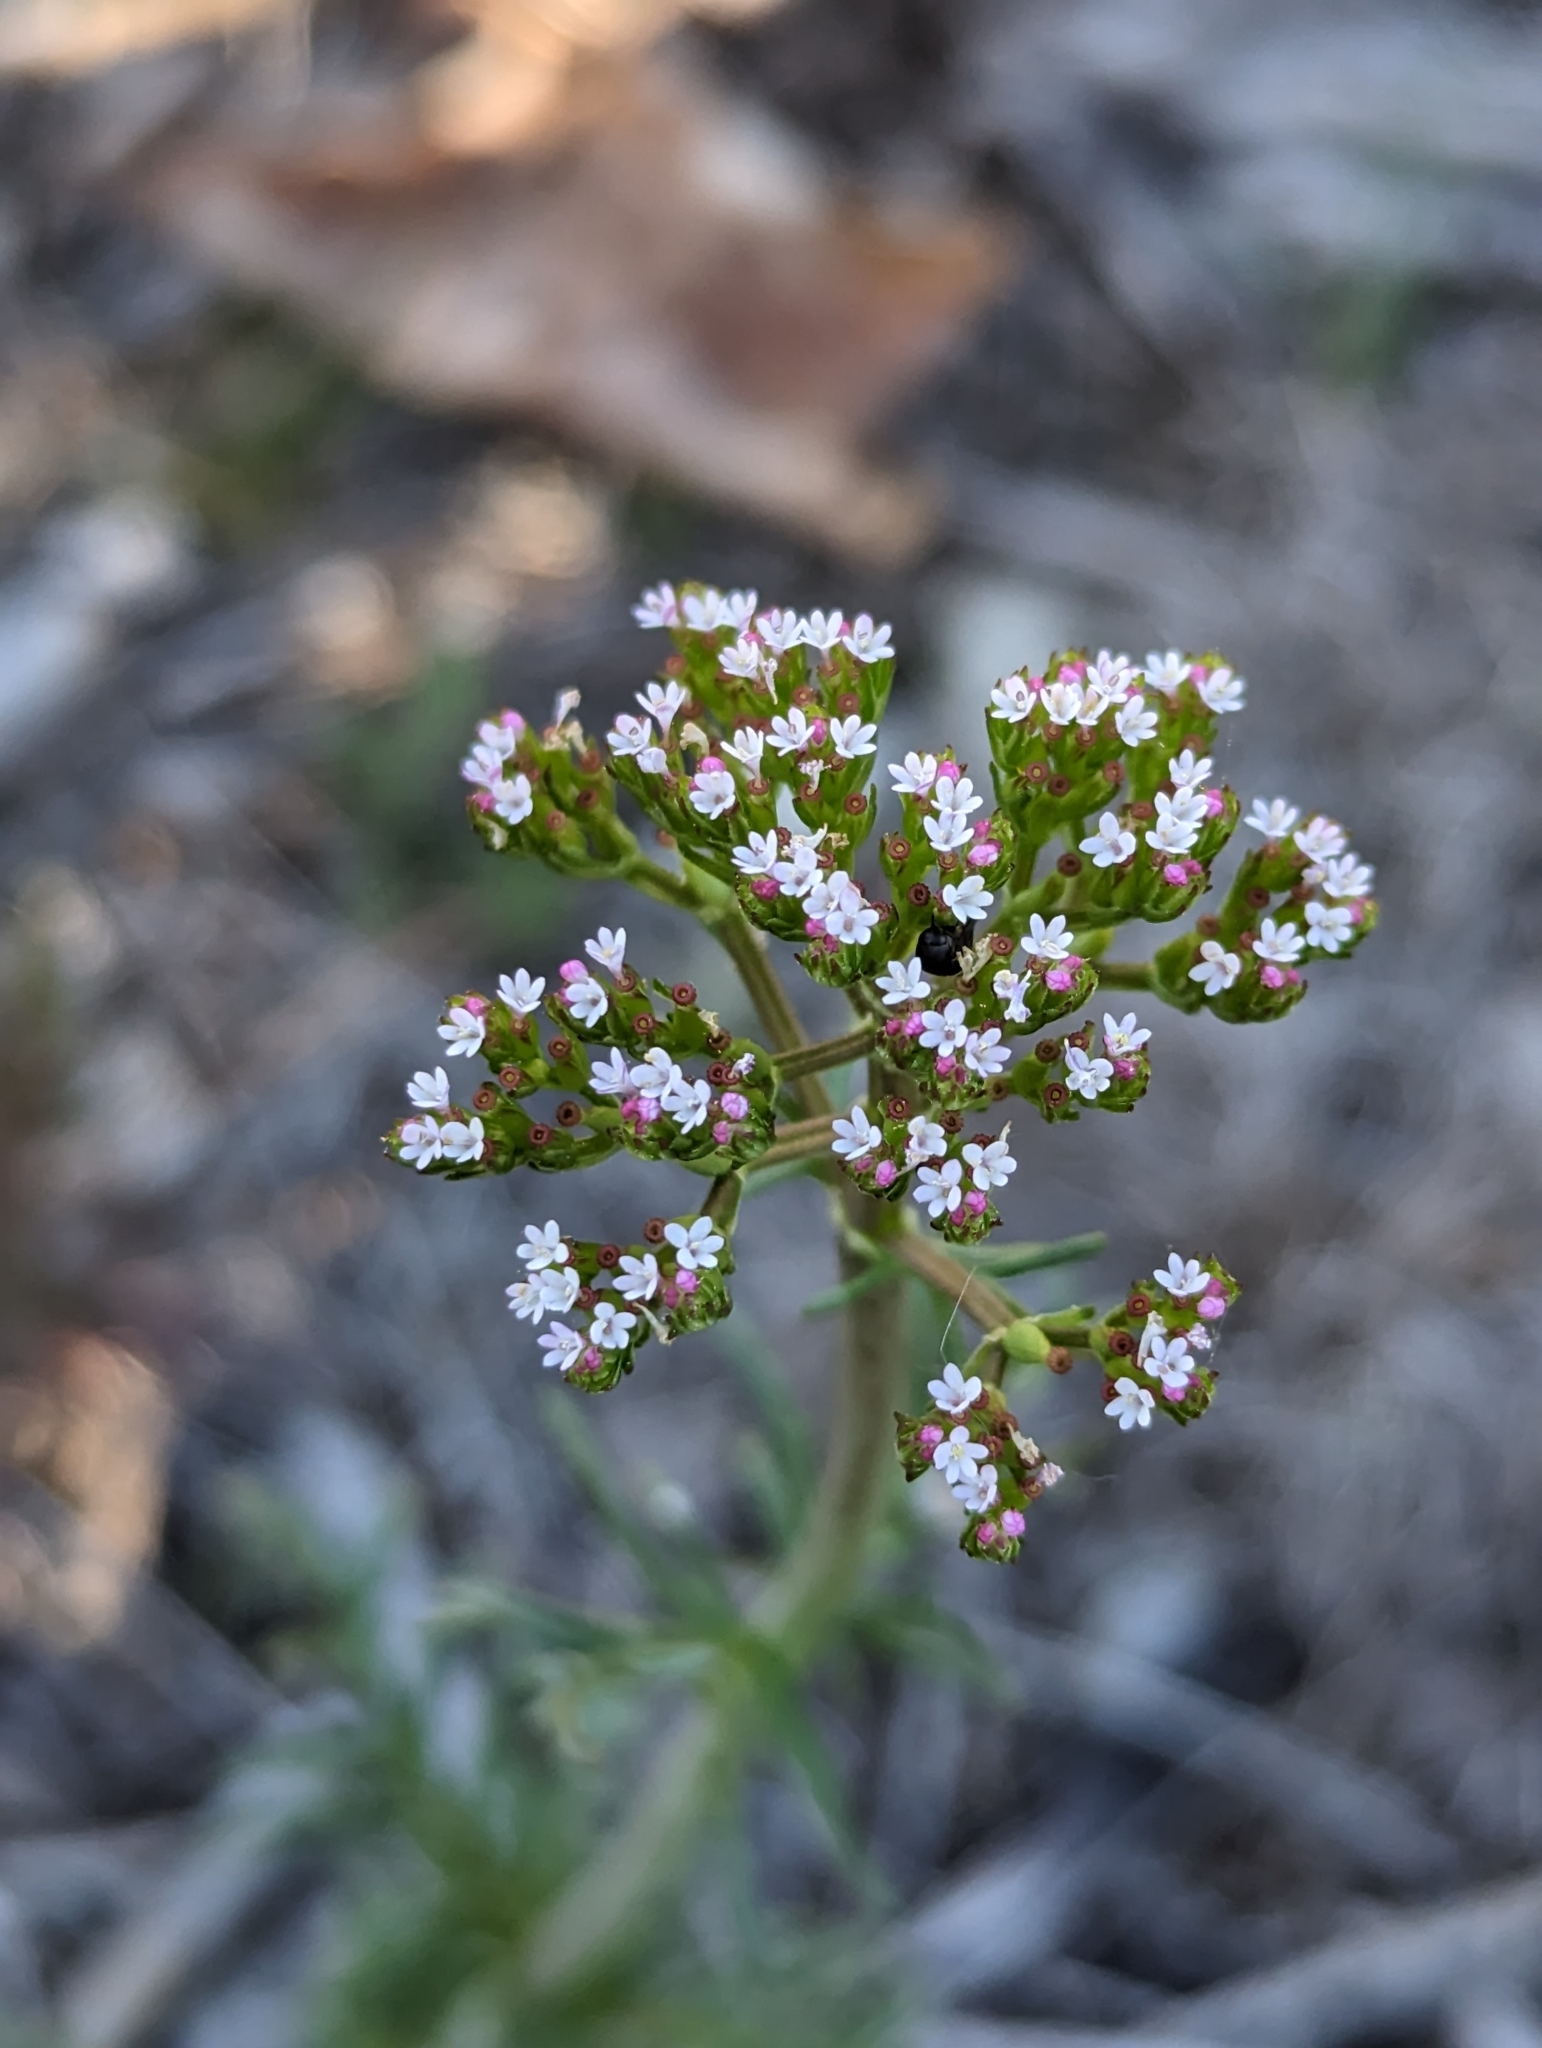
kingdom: Plantae
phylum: Tracheophyta
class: Magnoliopsida
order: Dipsacales
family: Caprifoliaceae
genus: Centranthus
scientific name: Centranthus calcitrapae
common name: Annual valerian
